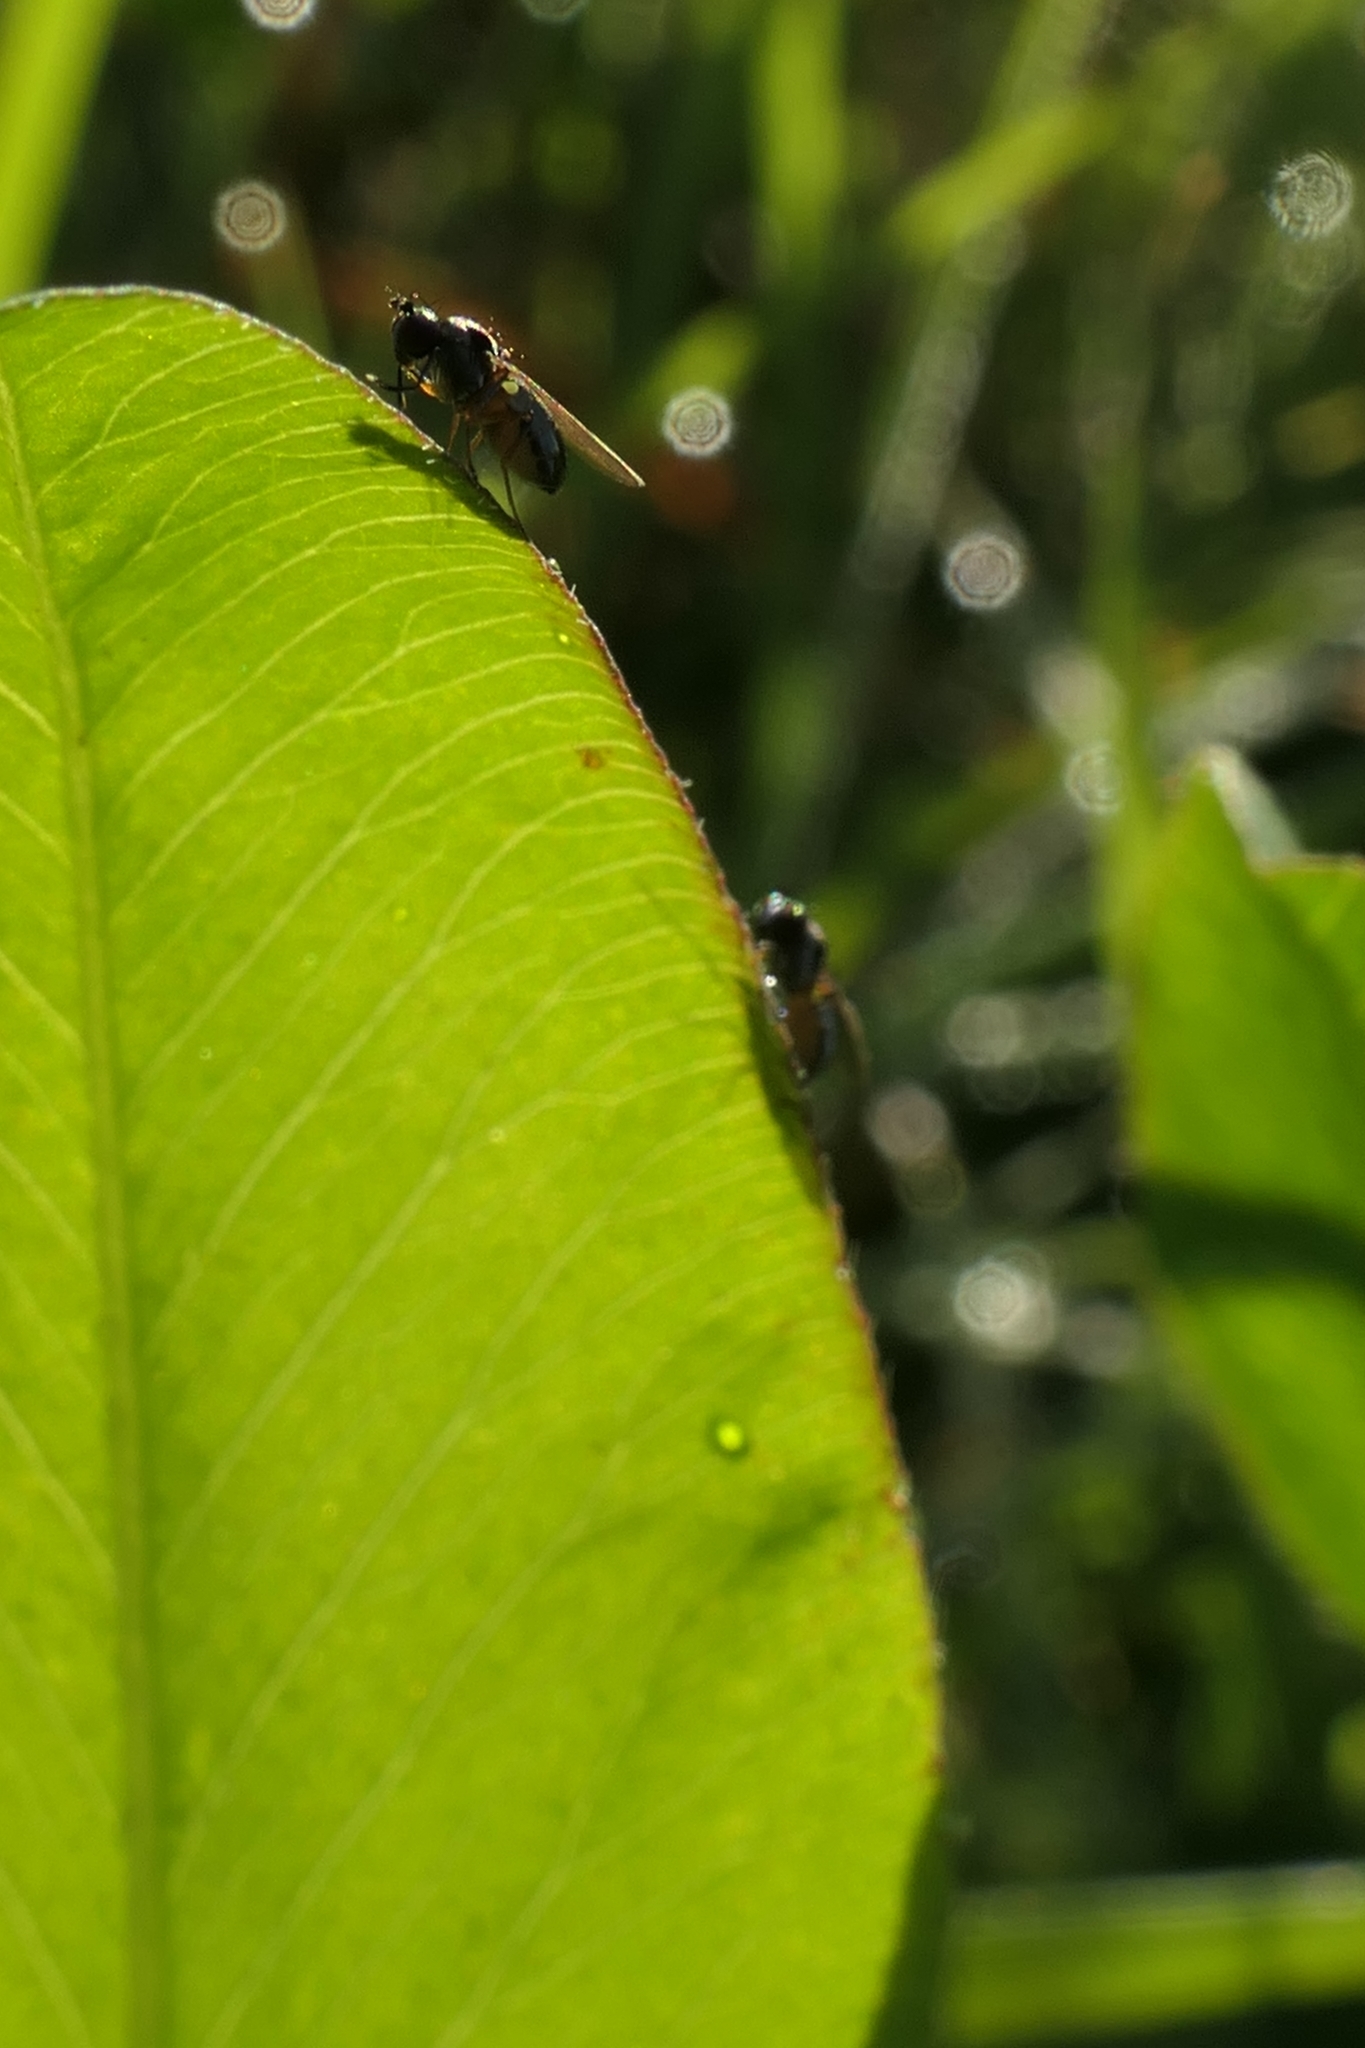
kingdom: Animalia
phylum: Arthropoda
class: Insecta
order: Diptera
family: Ephydridae
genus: Hydrellia
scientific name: Hydrellia tritici
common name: Shore fly
